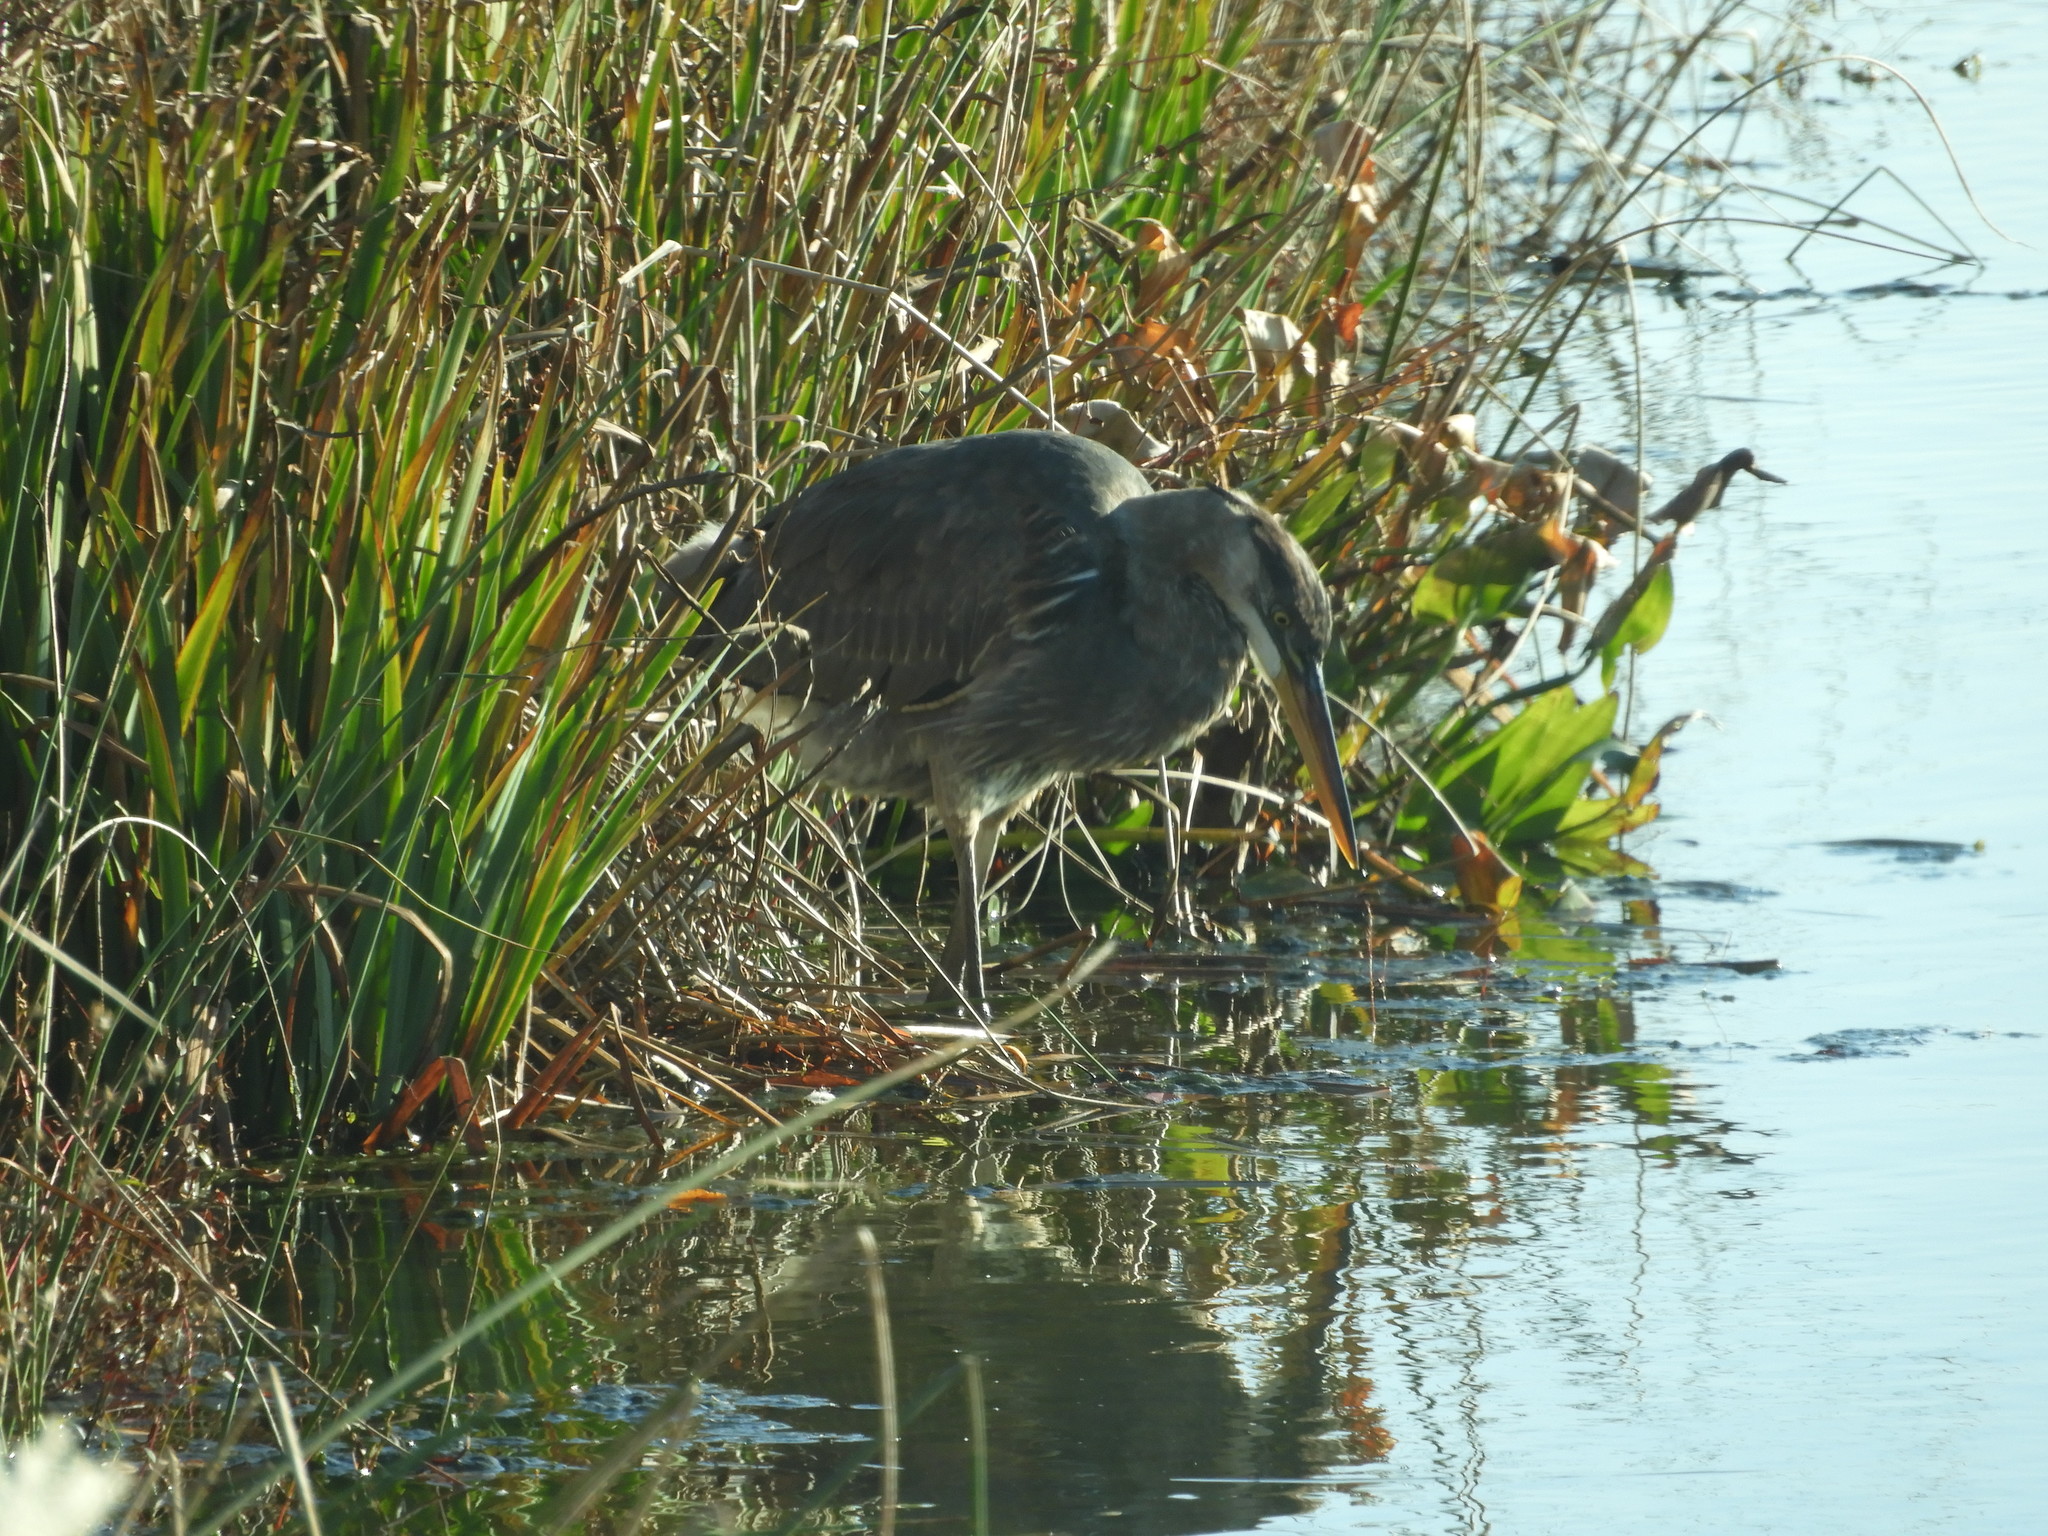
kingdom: Animalia
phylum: Chordata
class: Aves
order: Pelecaniformes
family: Ardeidae
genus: Ardea
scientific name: Ardea herodias
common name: Great blue heron
